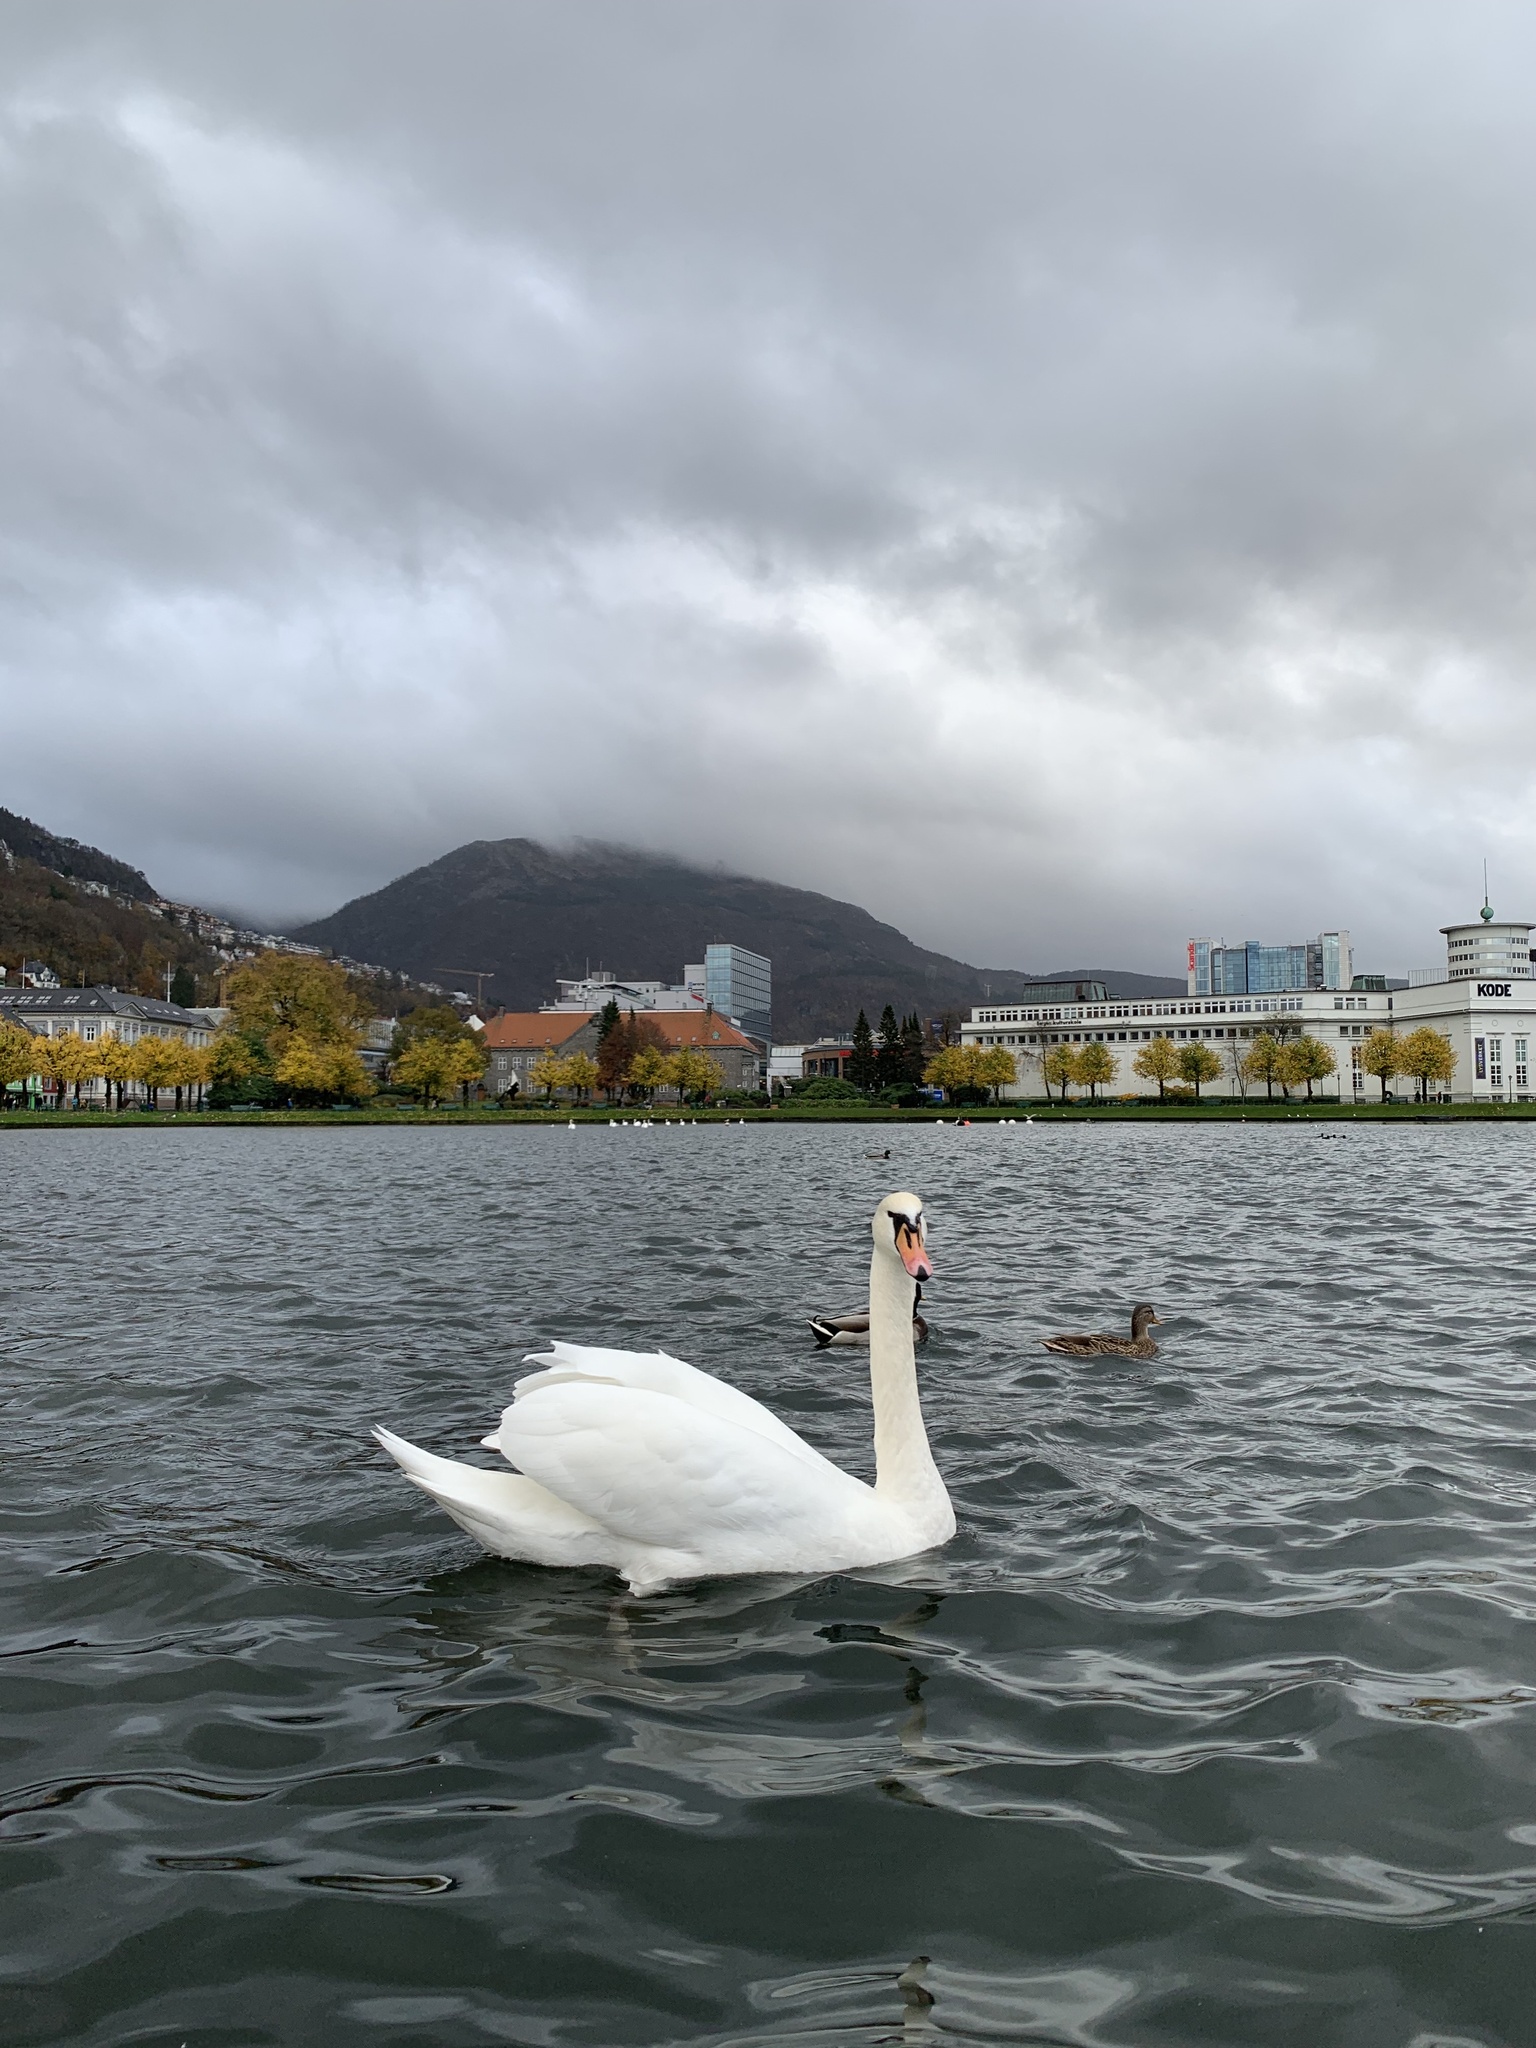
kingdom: Animalia
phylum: Chordata
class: Aves
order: Anseriformes
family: Anatidae
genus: Cygnus
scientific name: Cygnus olor
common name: Mute swan
